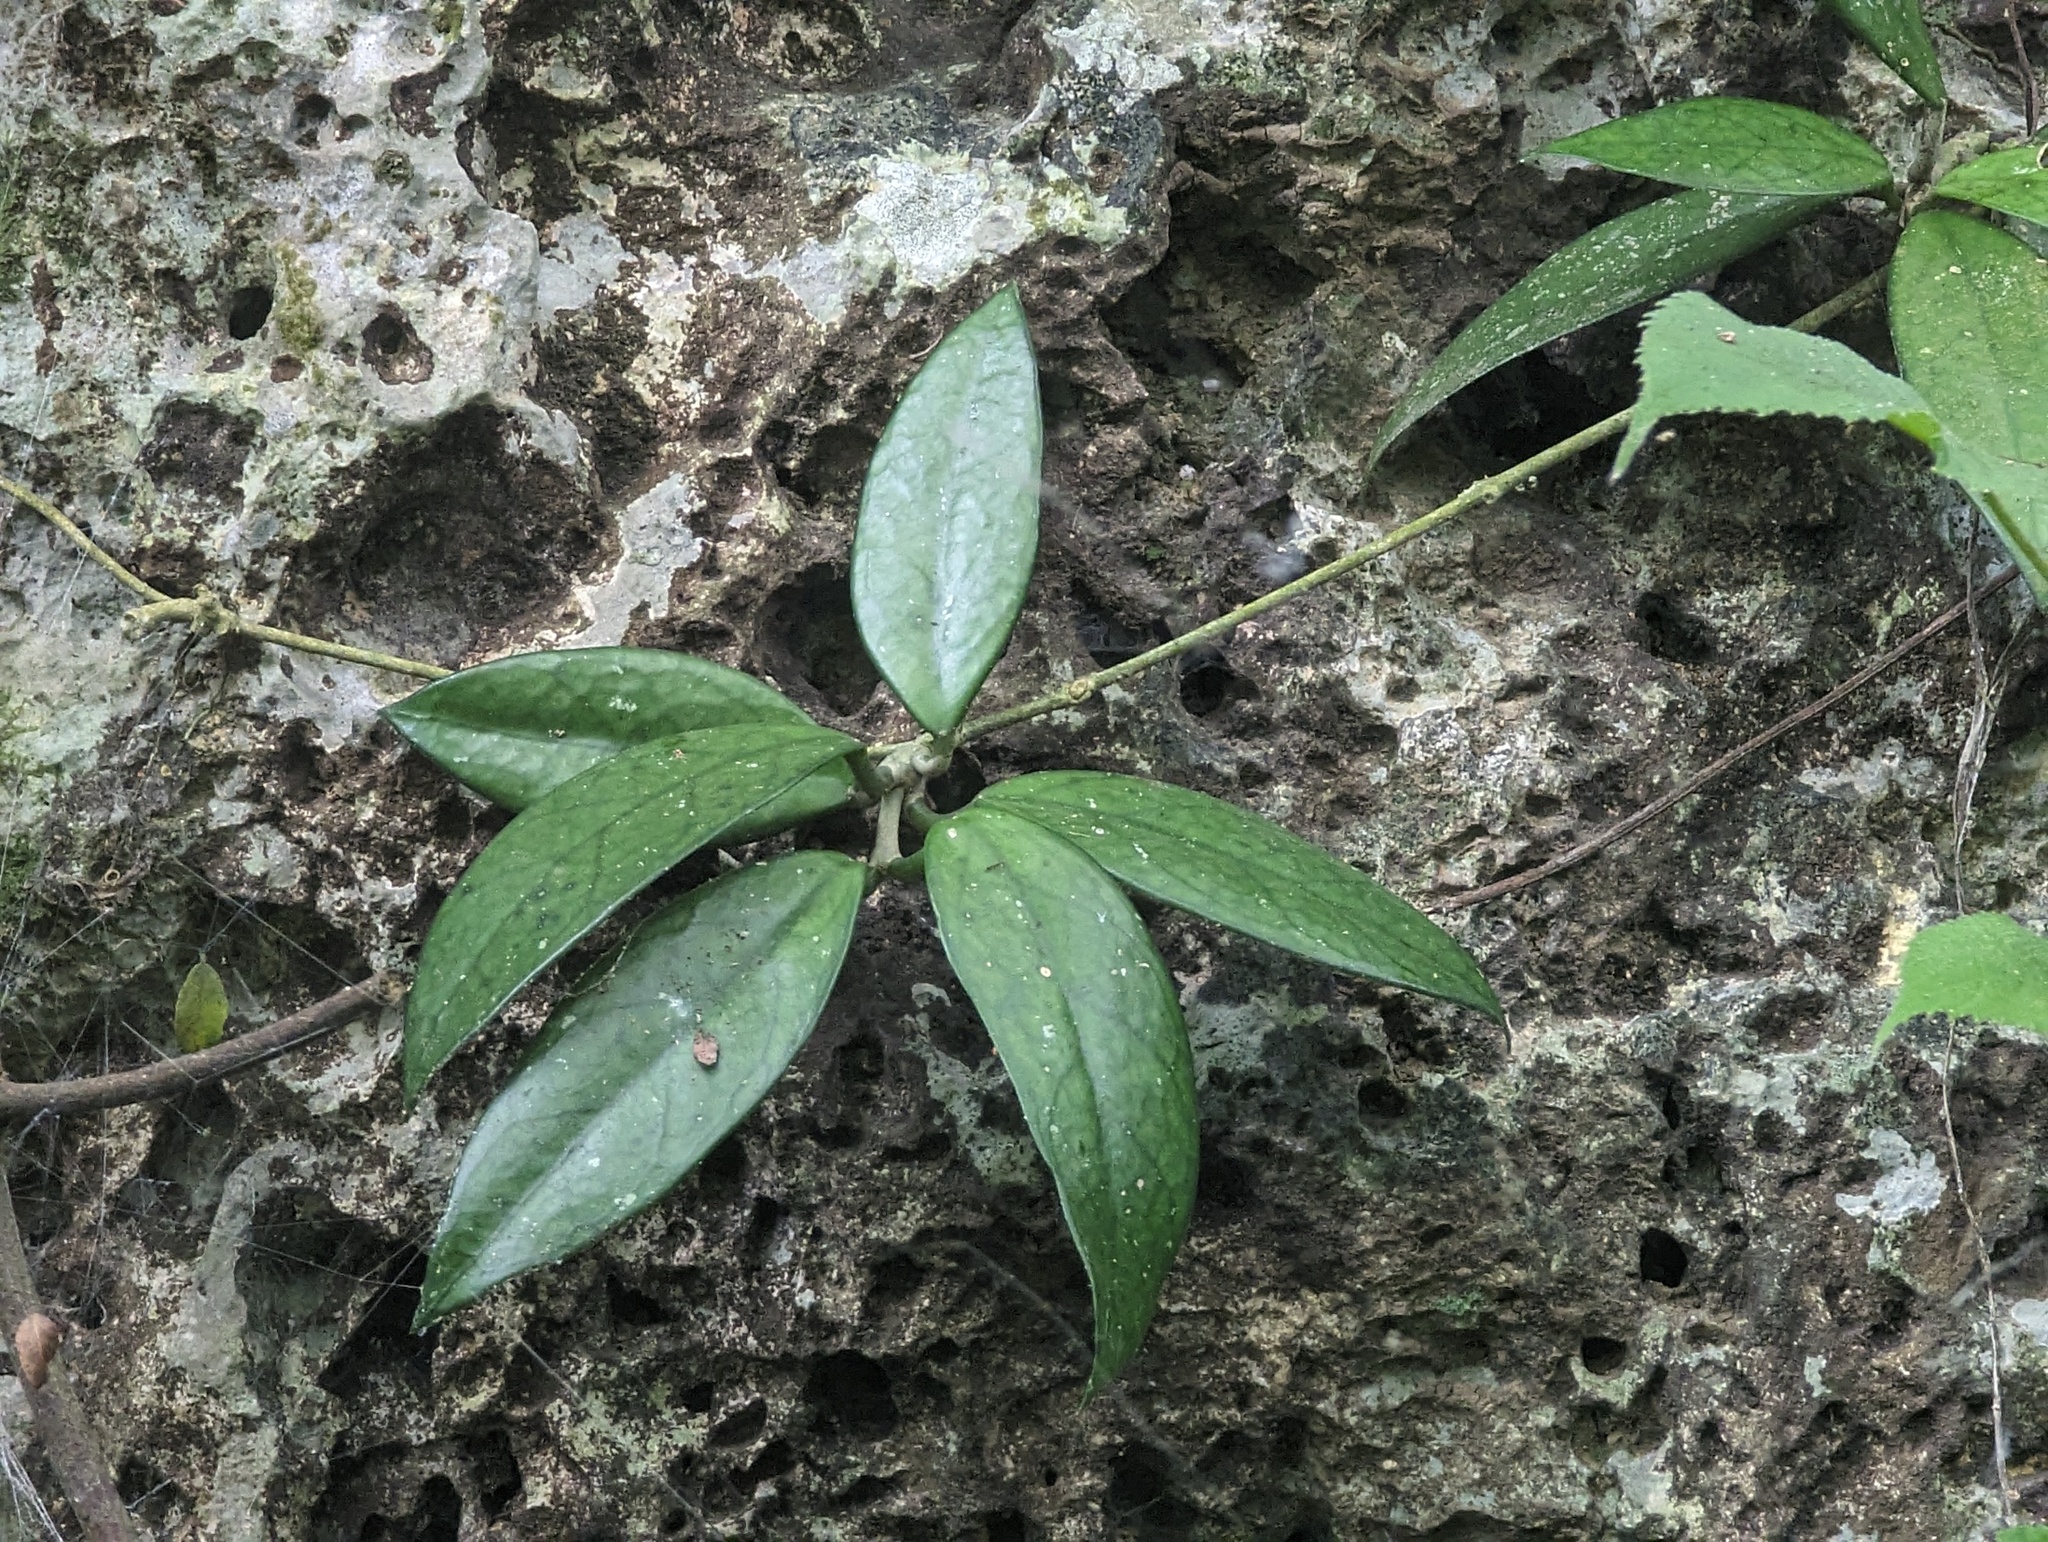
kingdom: Plantae
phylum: Tracheophyta
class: Magnoliopsida
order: Gentianales
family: Apocynaceae
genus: Hoya
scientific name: Hoya carnosa
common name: Honeyplant
